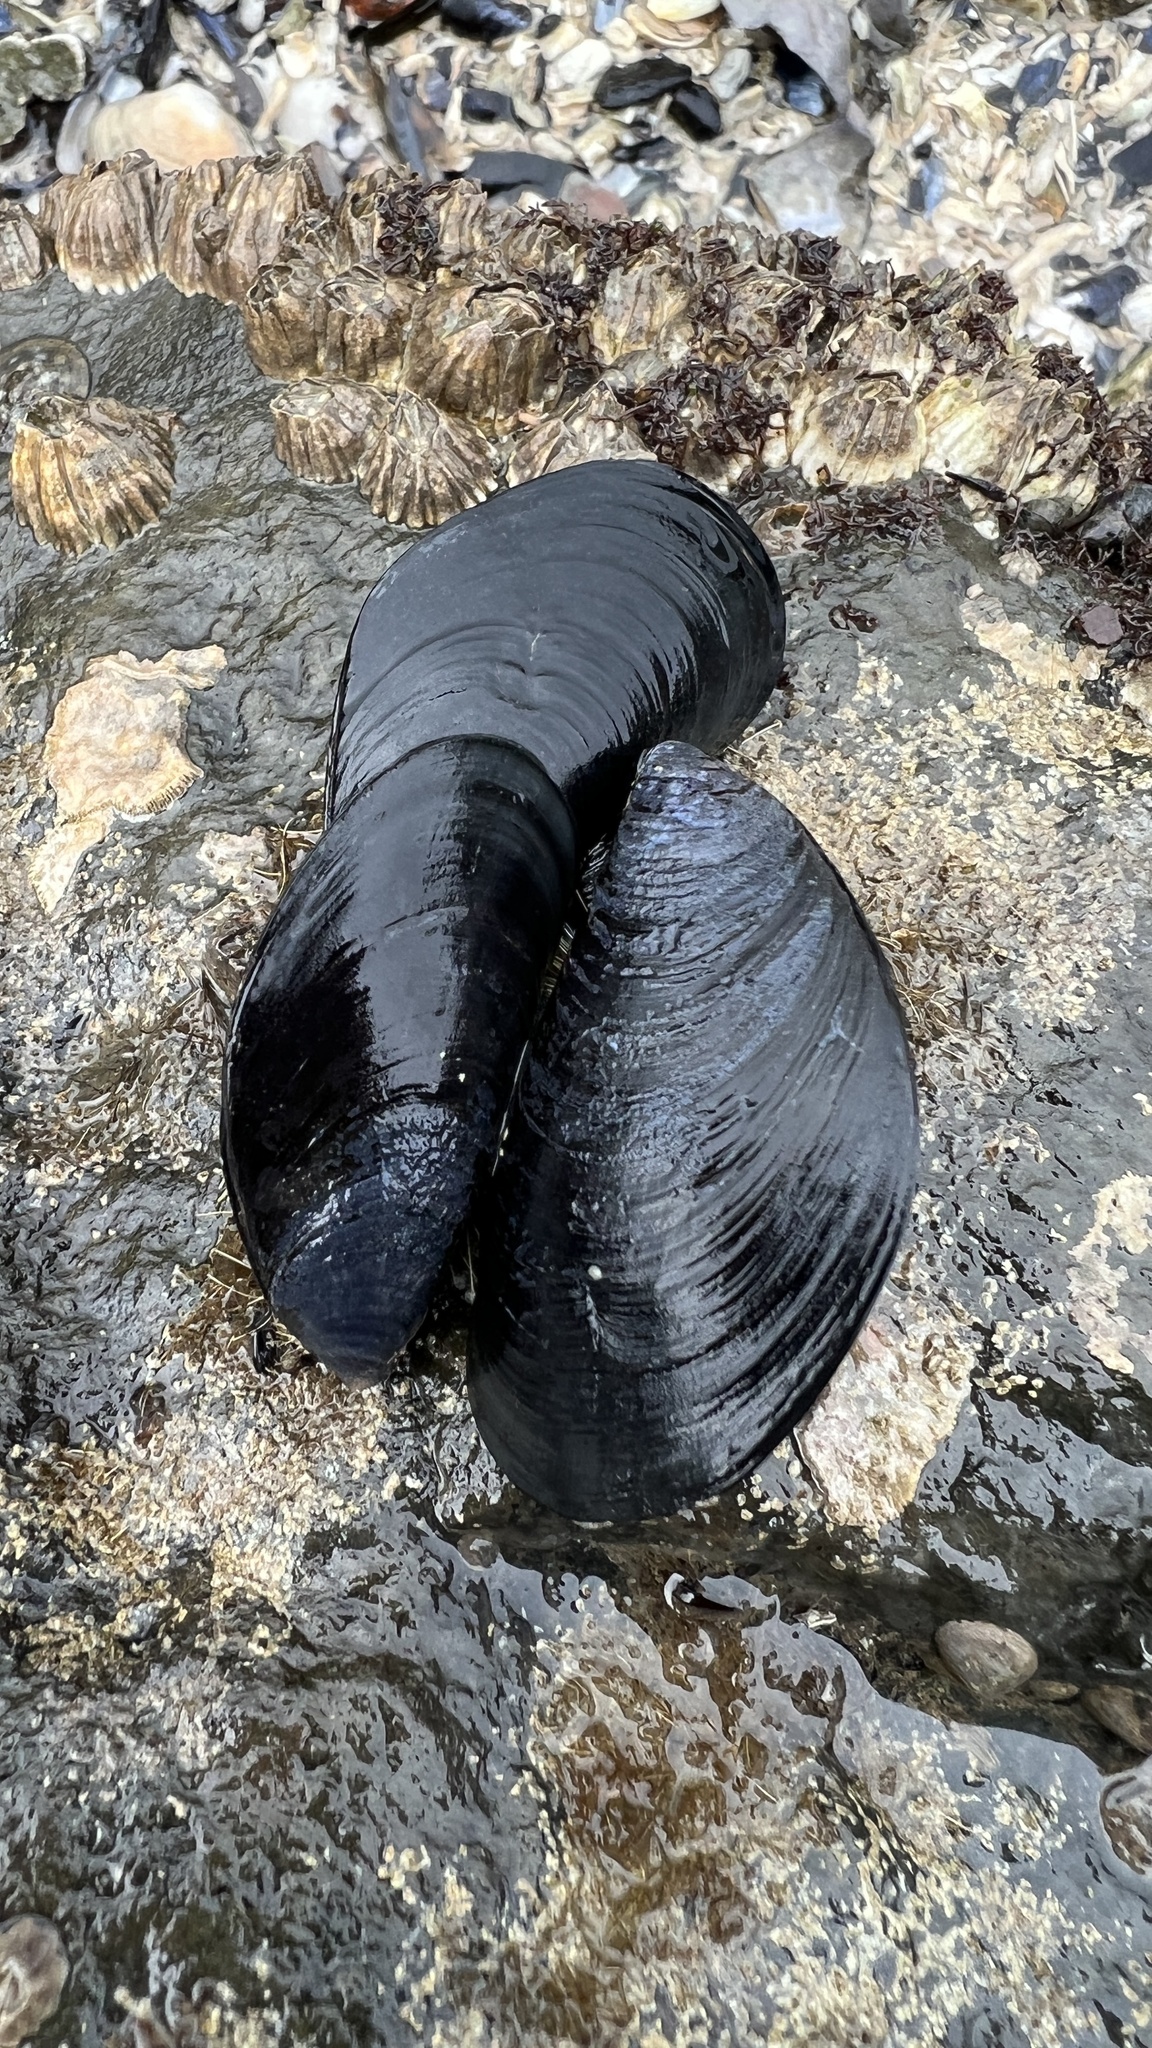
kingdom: Animalia
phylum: Mollusca
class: Bivalvia
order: Mytilida
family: Mytilidae
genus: Mytilus
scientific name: Mytilus
